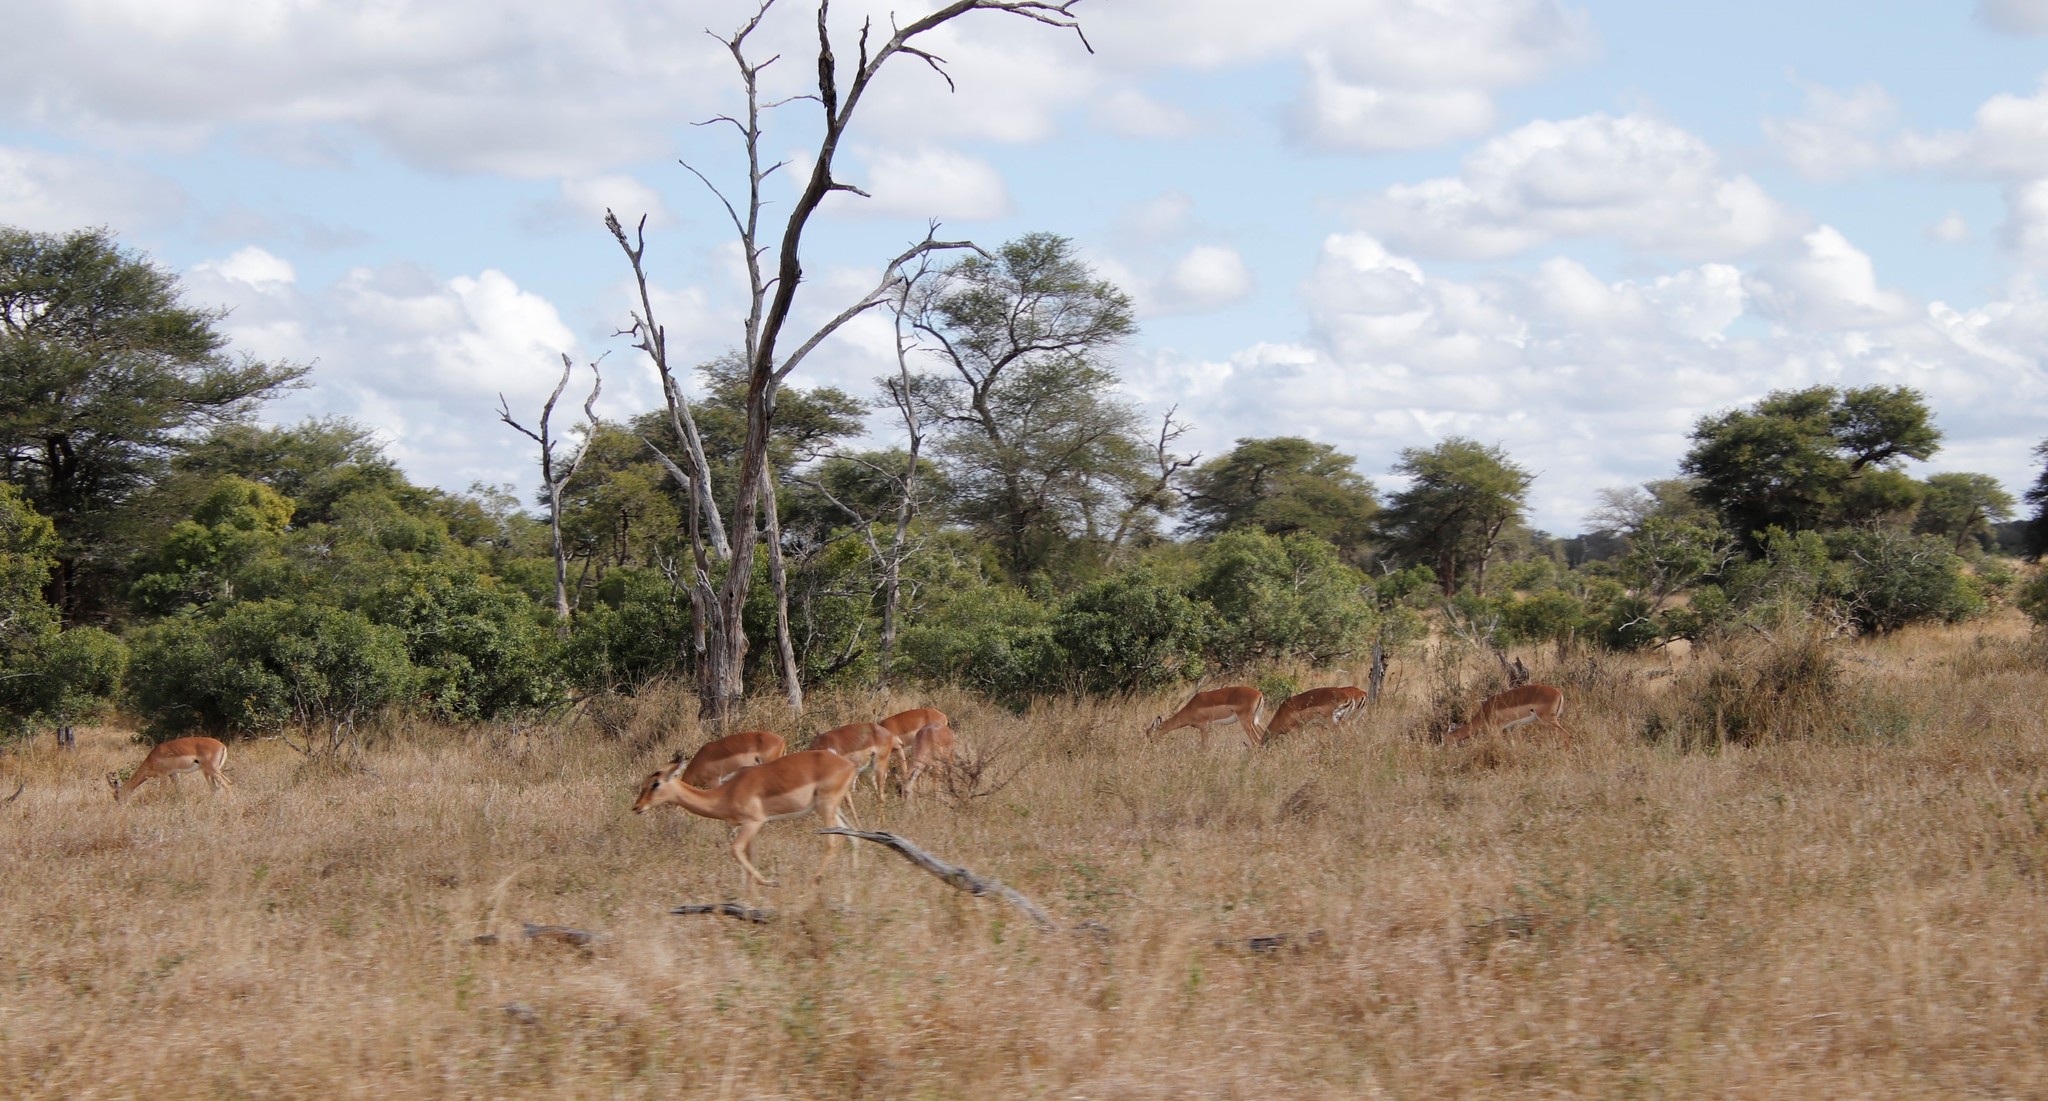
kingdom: Animalia
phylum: Chordata
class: Mammalia
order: Artiodactyla
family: Bovidae
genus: Aepyceros
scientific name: Aepyceros melampus
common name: Impala
